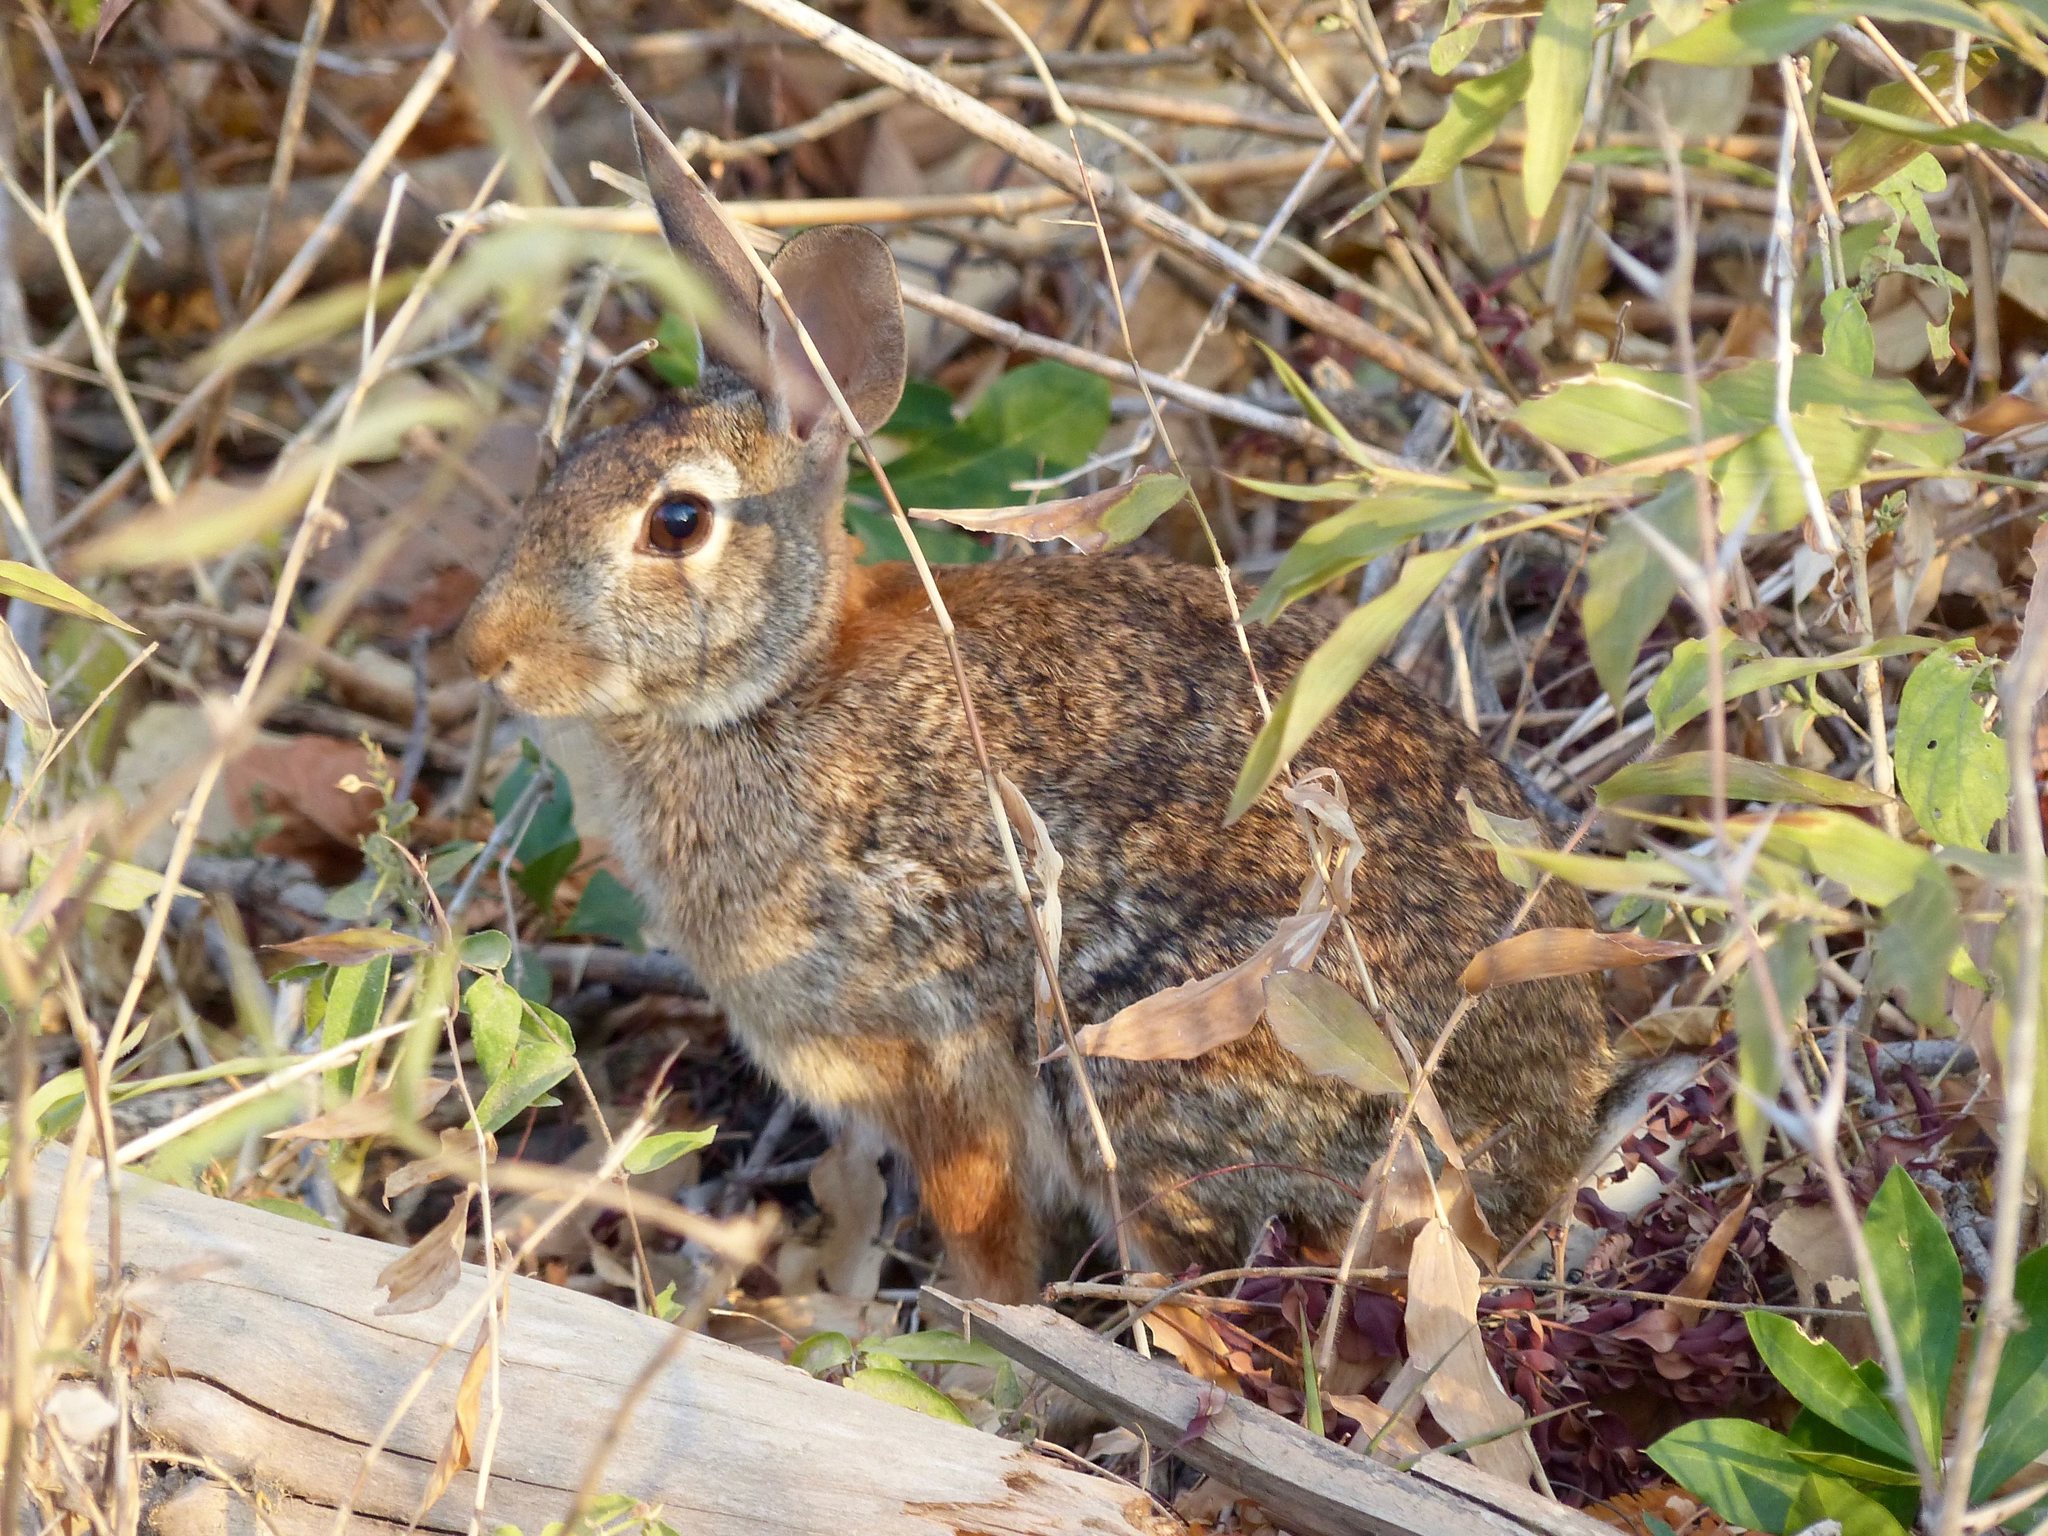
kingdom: Animalia
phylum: Chordata
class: Mammalia
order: Lagomorpha
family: Leporidae
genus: Sylvilagus
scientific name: Sylvilagus floridanus
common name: Eastern cottontail
